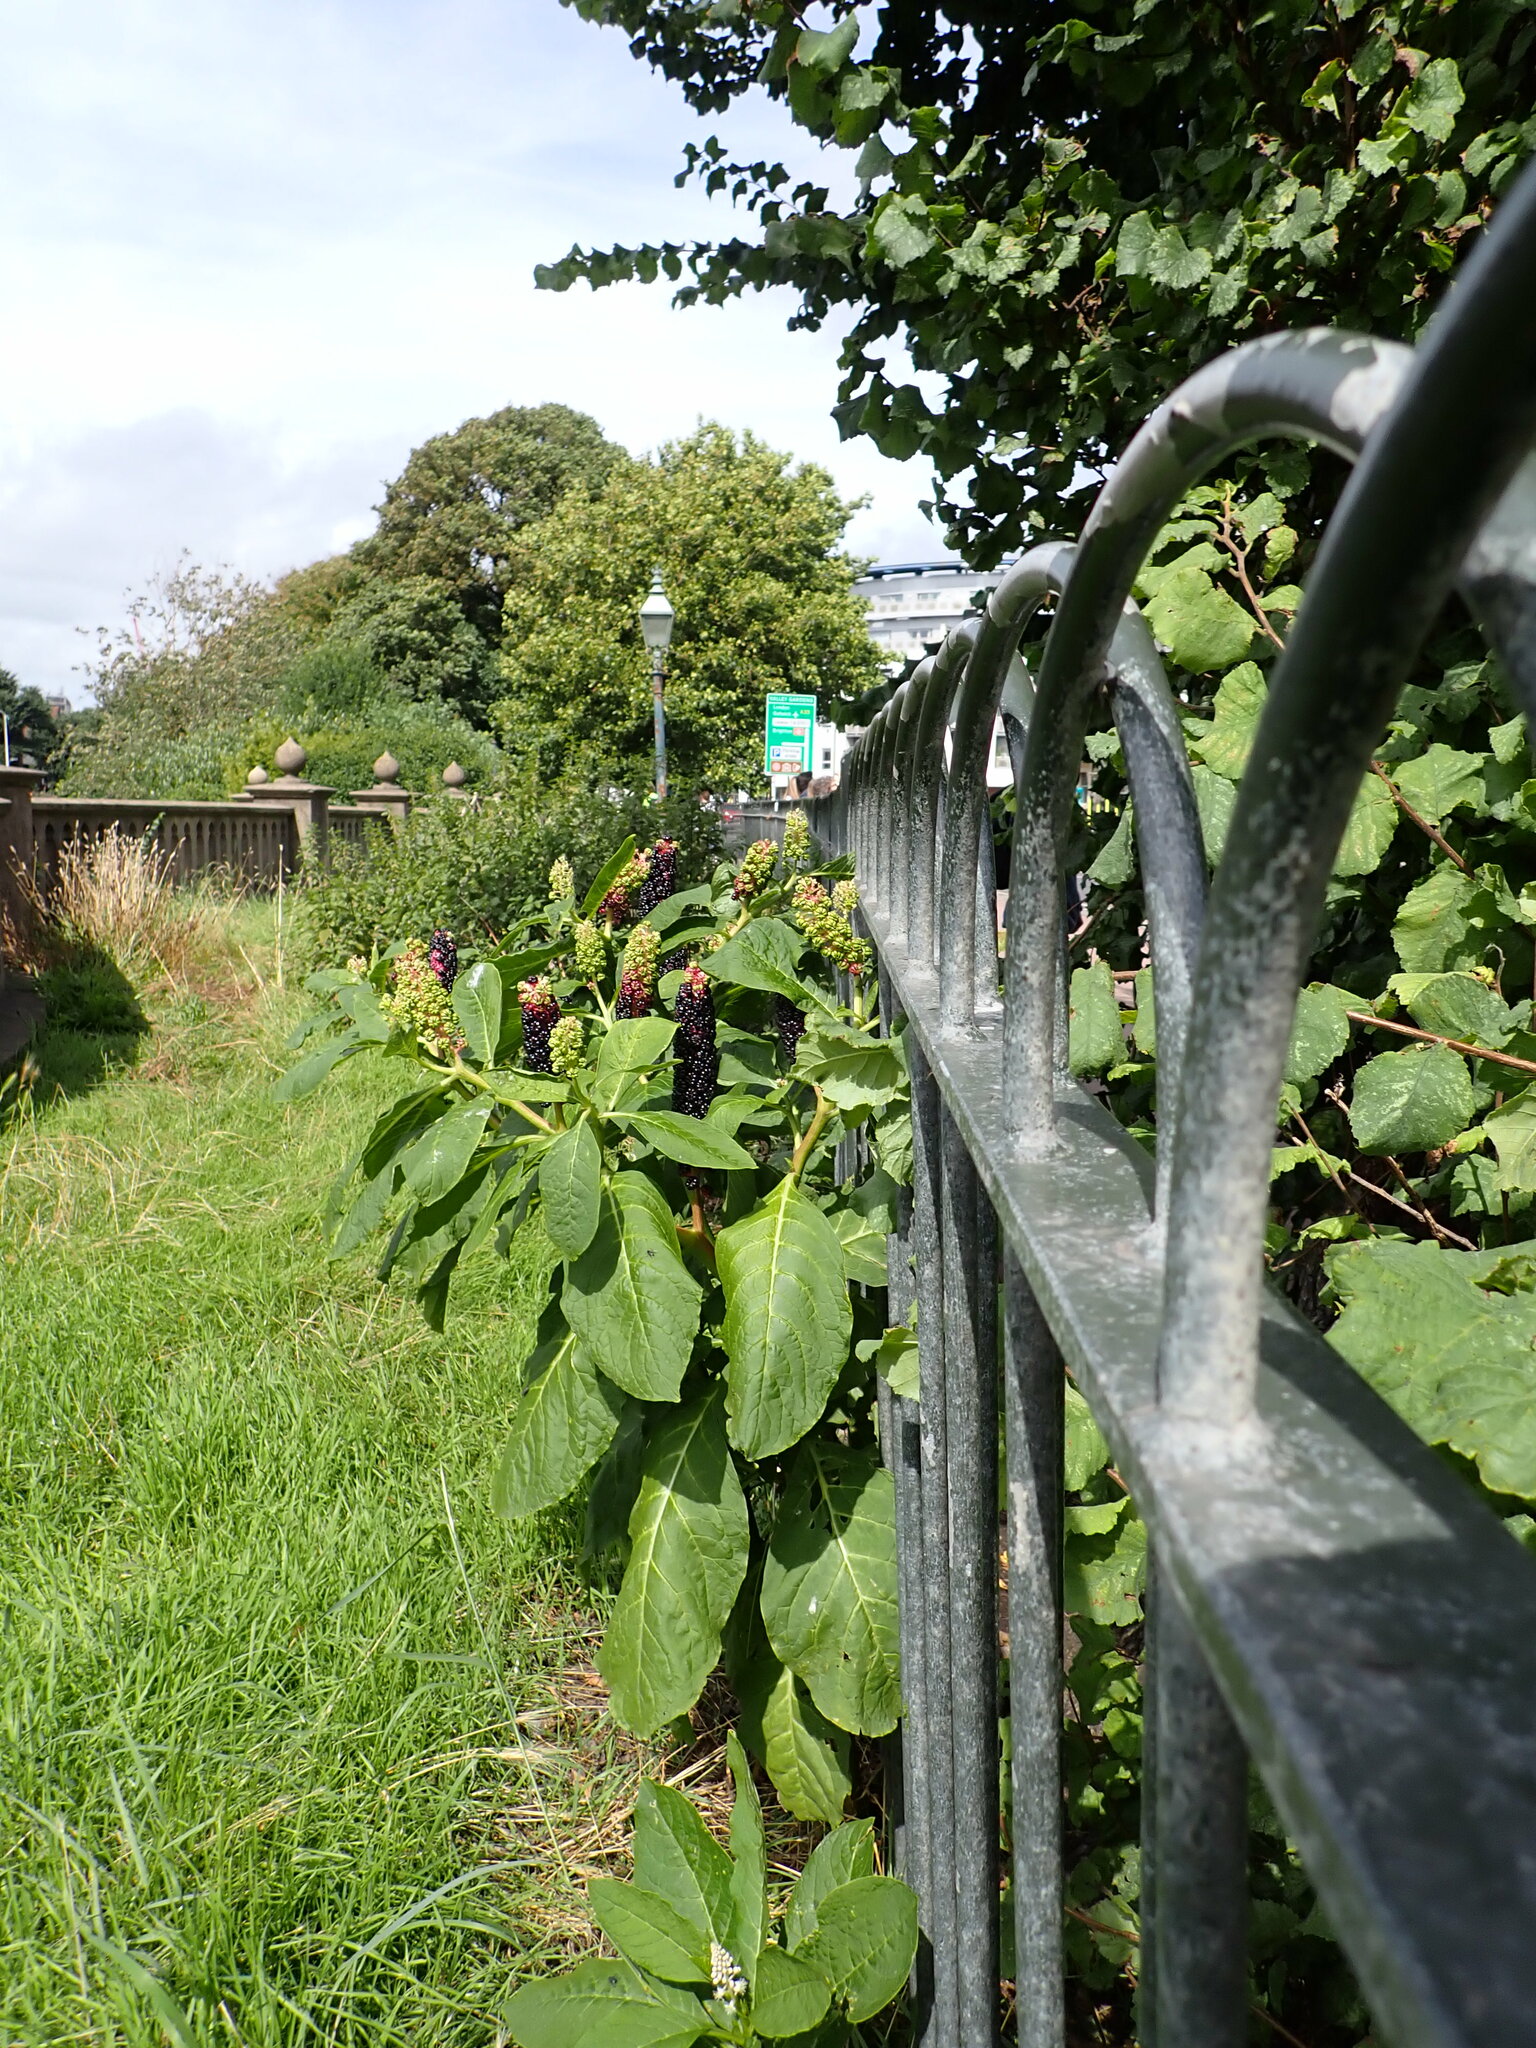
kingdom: Plantae
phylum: Tracheophyta
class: Magnoliopsida
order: Caryophyllales
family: Phytolaccaceae
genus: Phytolacca
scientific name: Phytolacca acinosa
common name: Indian pokeweed
